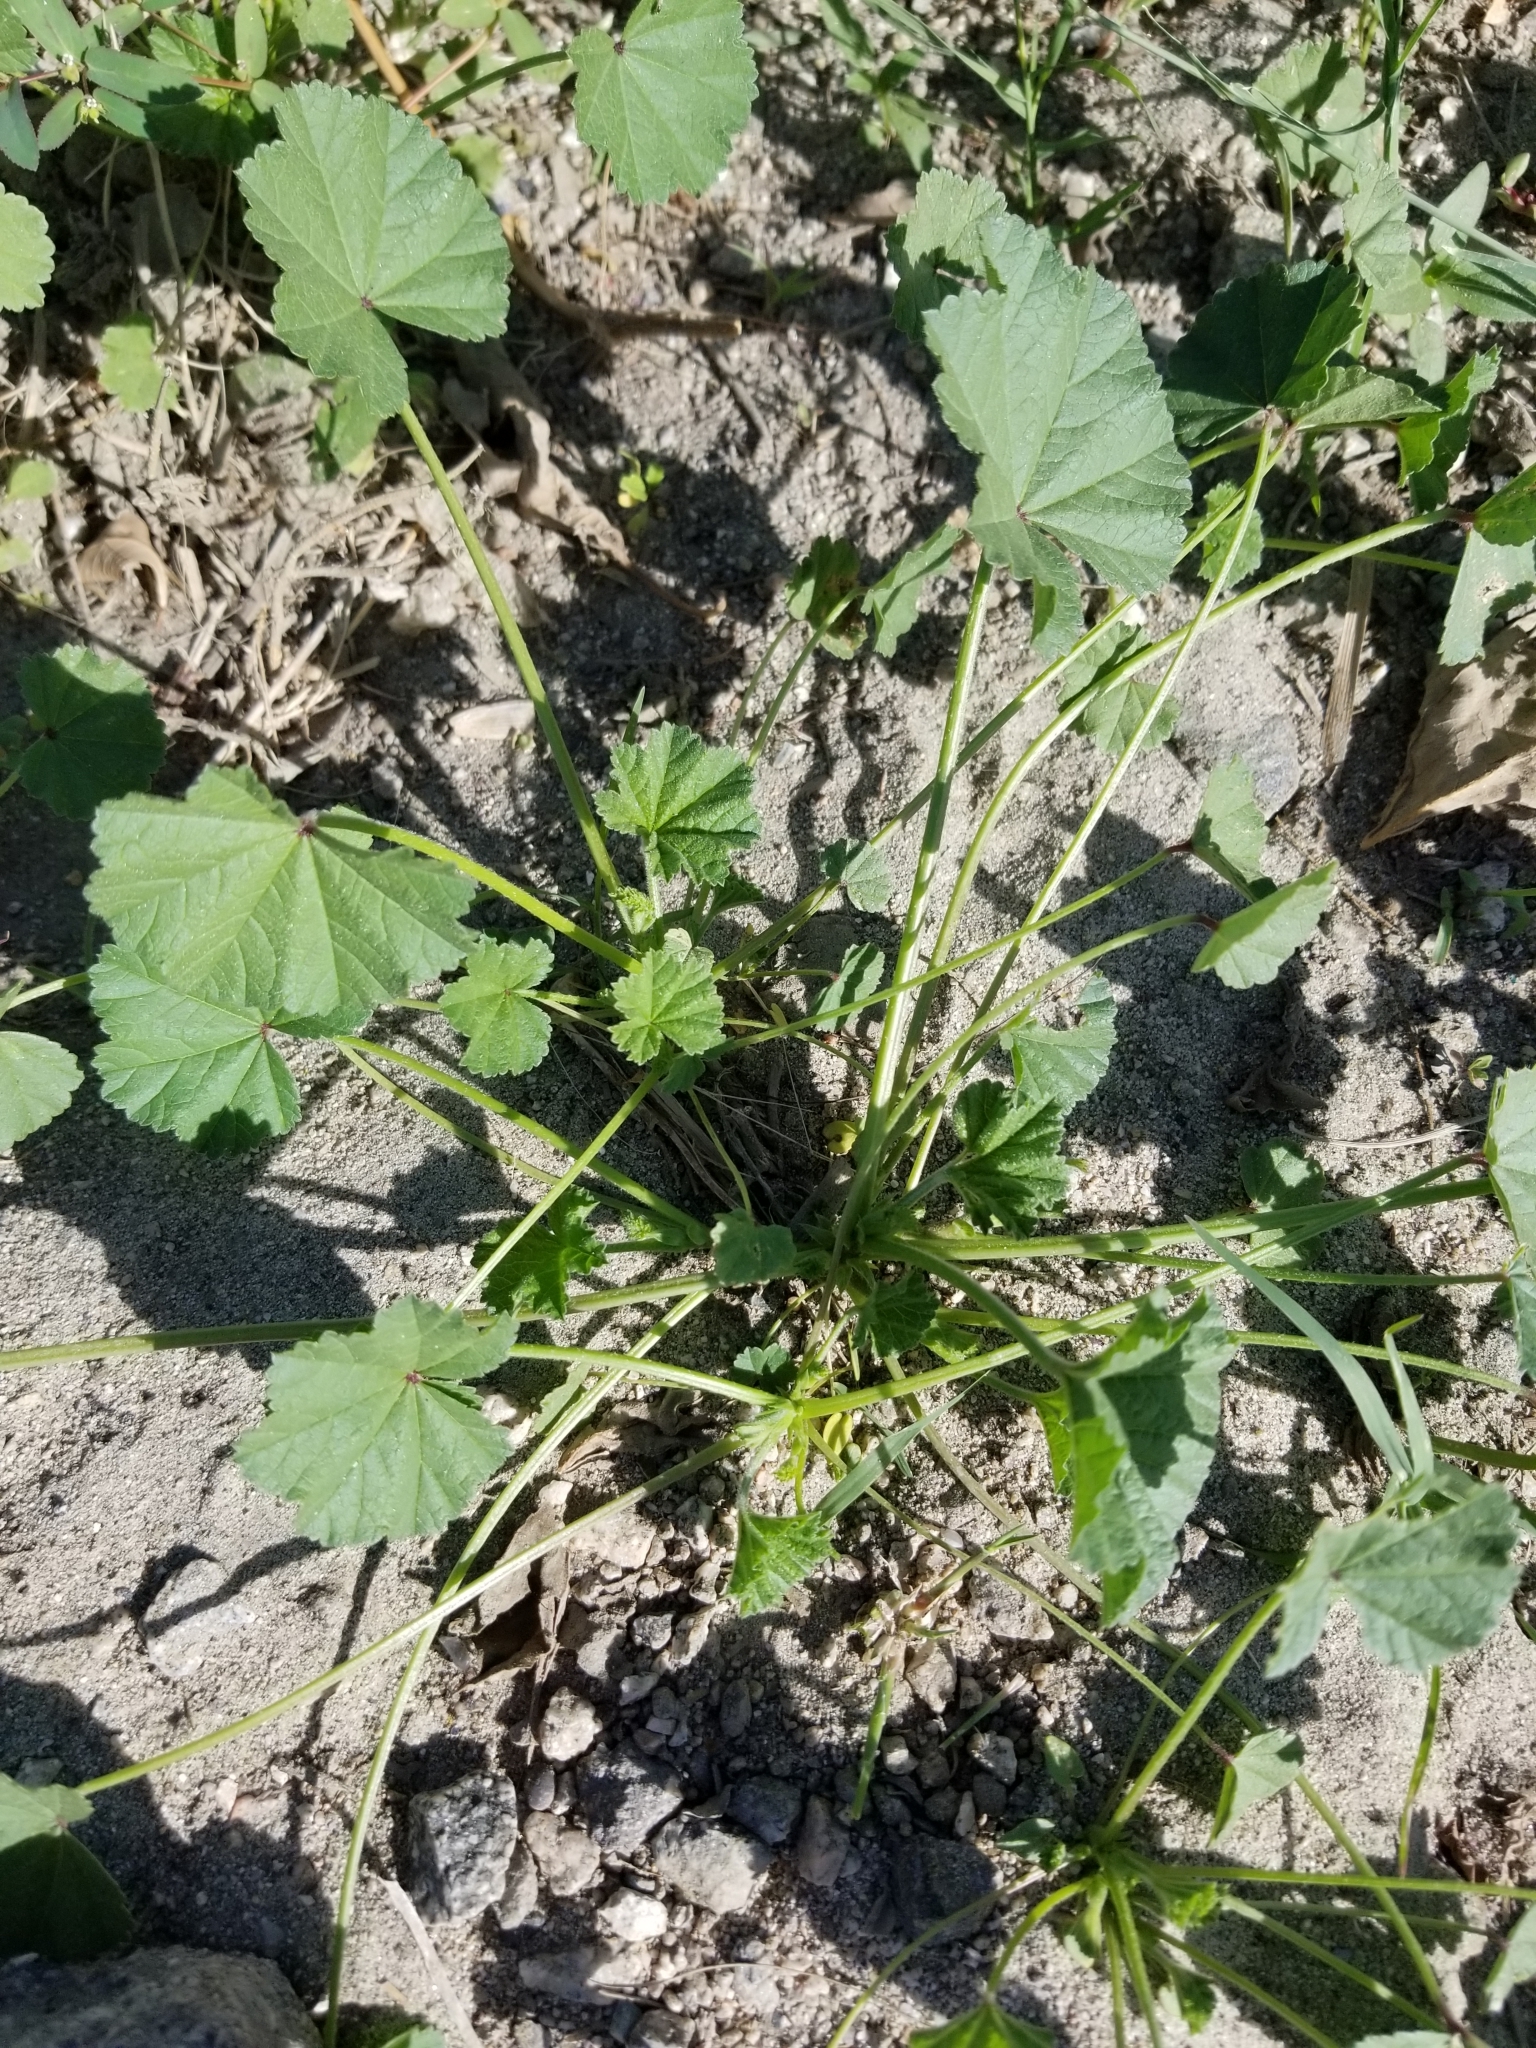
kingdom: Plantae
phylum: Tracheophyta
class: Magnoliopsida
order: Malvales
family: Malvaceae
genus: Malva
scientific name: Malva
